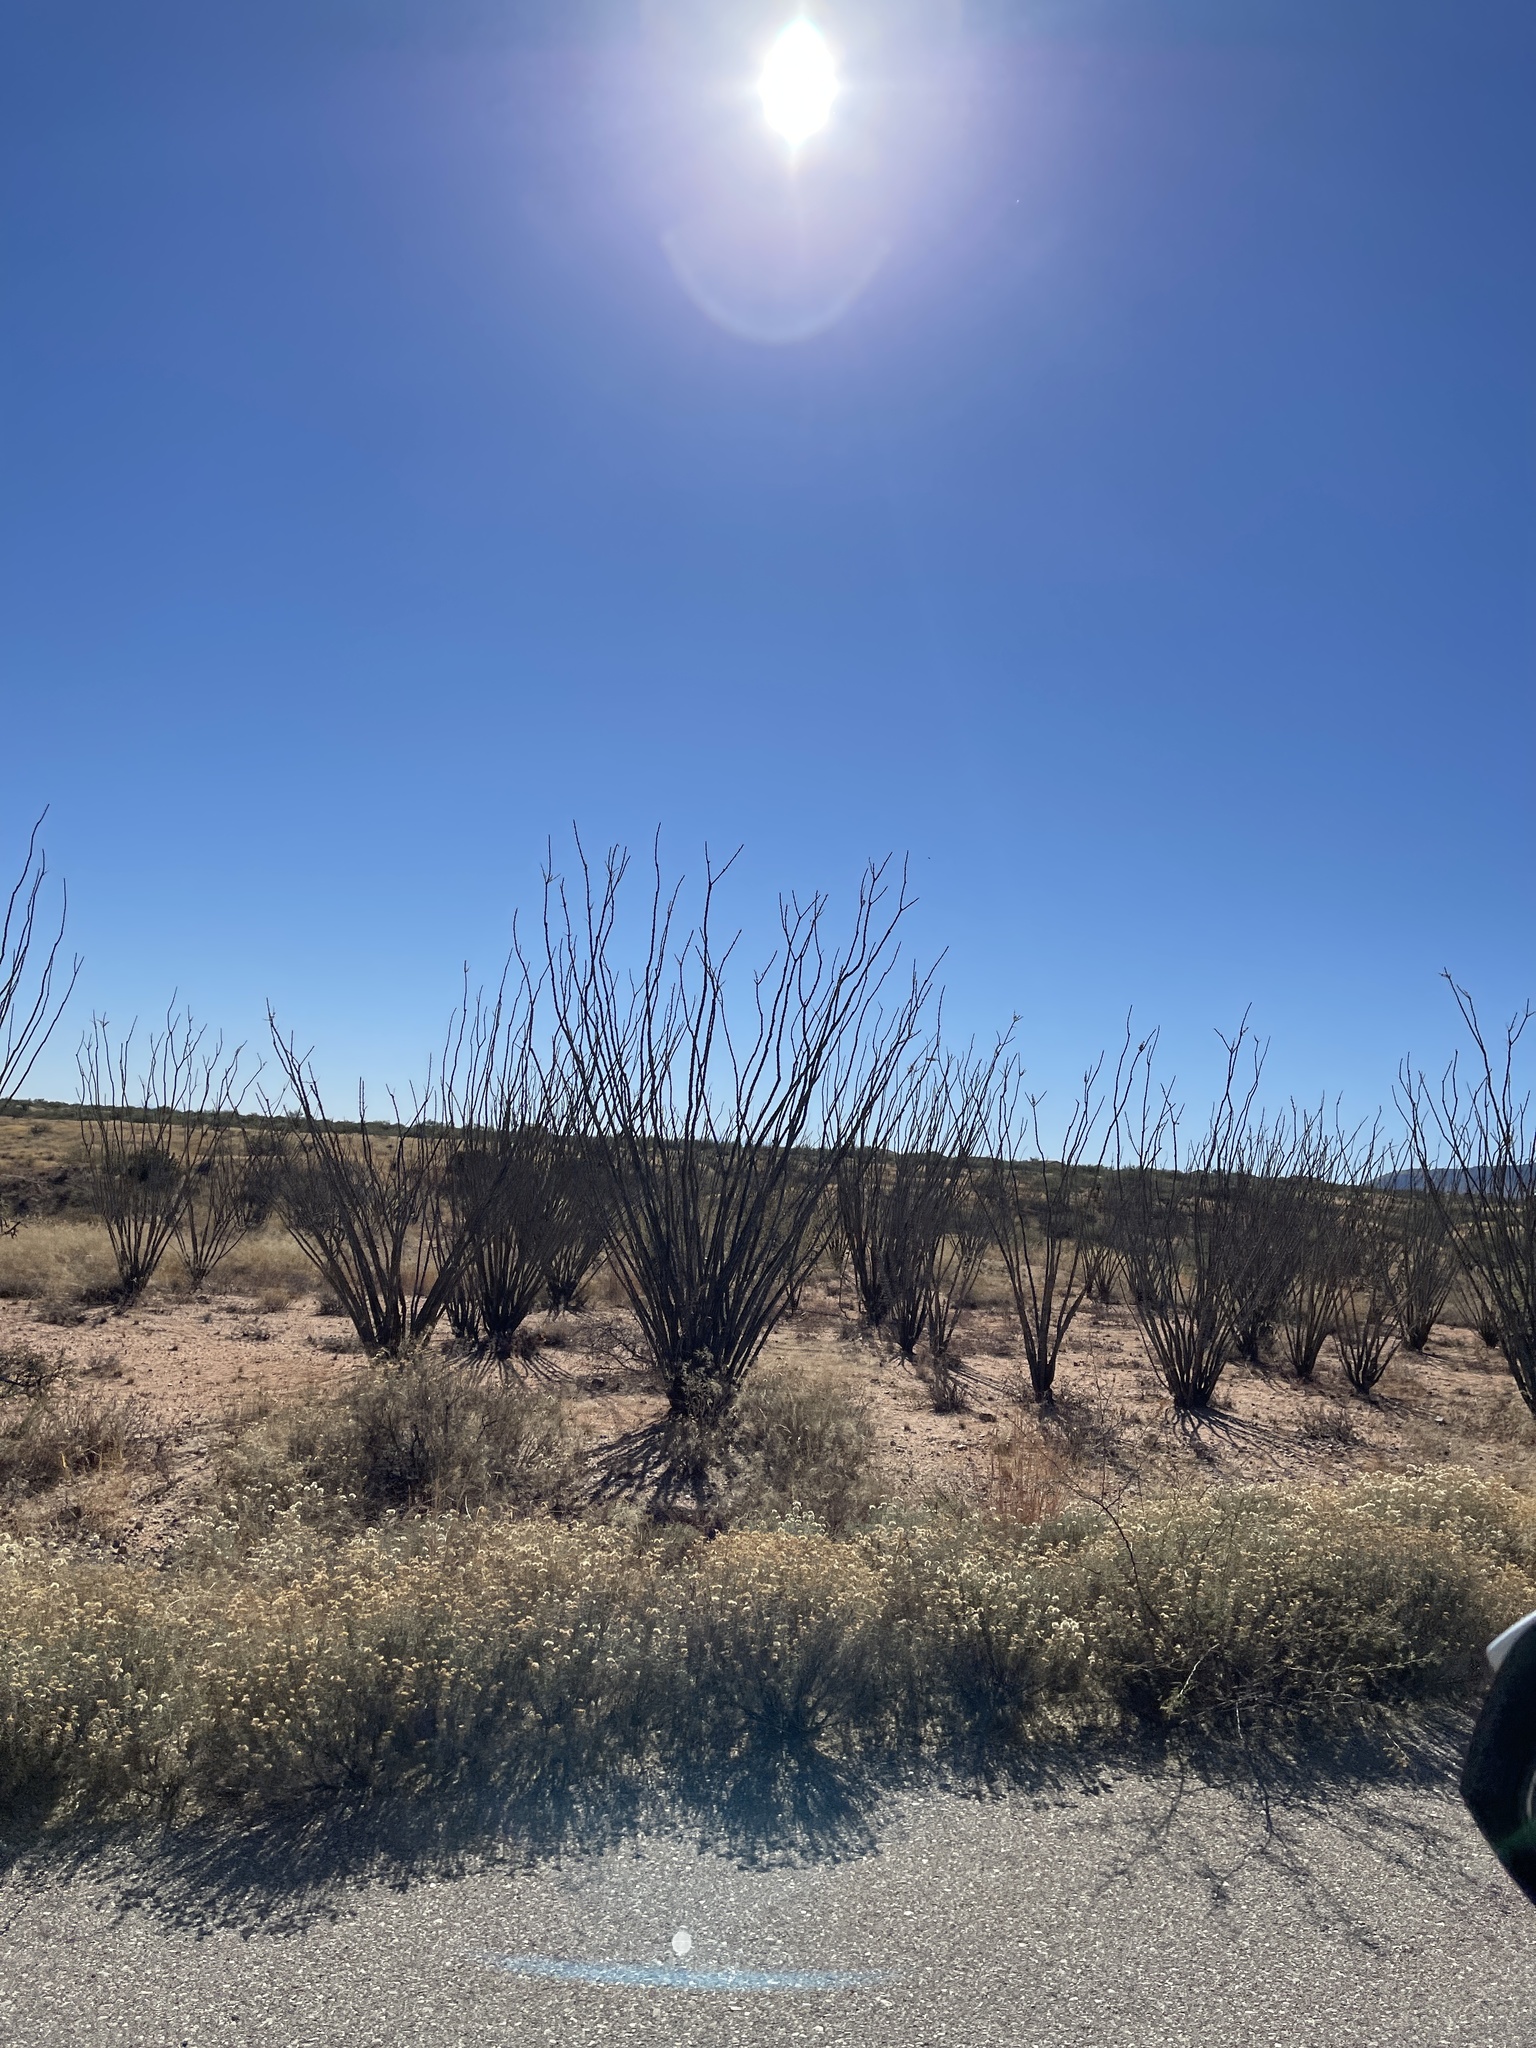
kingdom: Plantae
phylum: Tracheophyta
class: Magnoliopsida
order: Ericales
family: Fouquieriaceae
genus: Fouquieria
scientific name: Fouquieria splendens
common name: Vine-cactus
